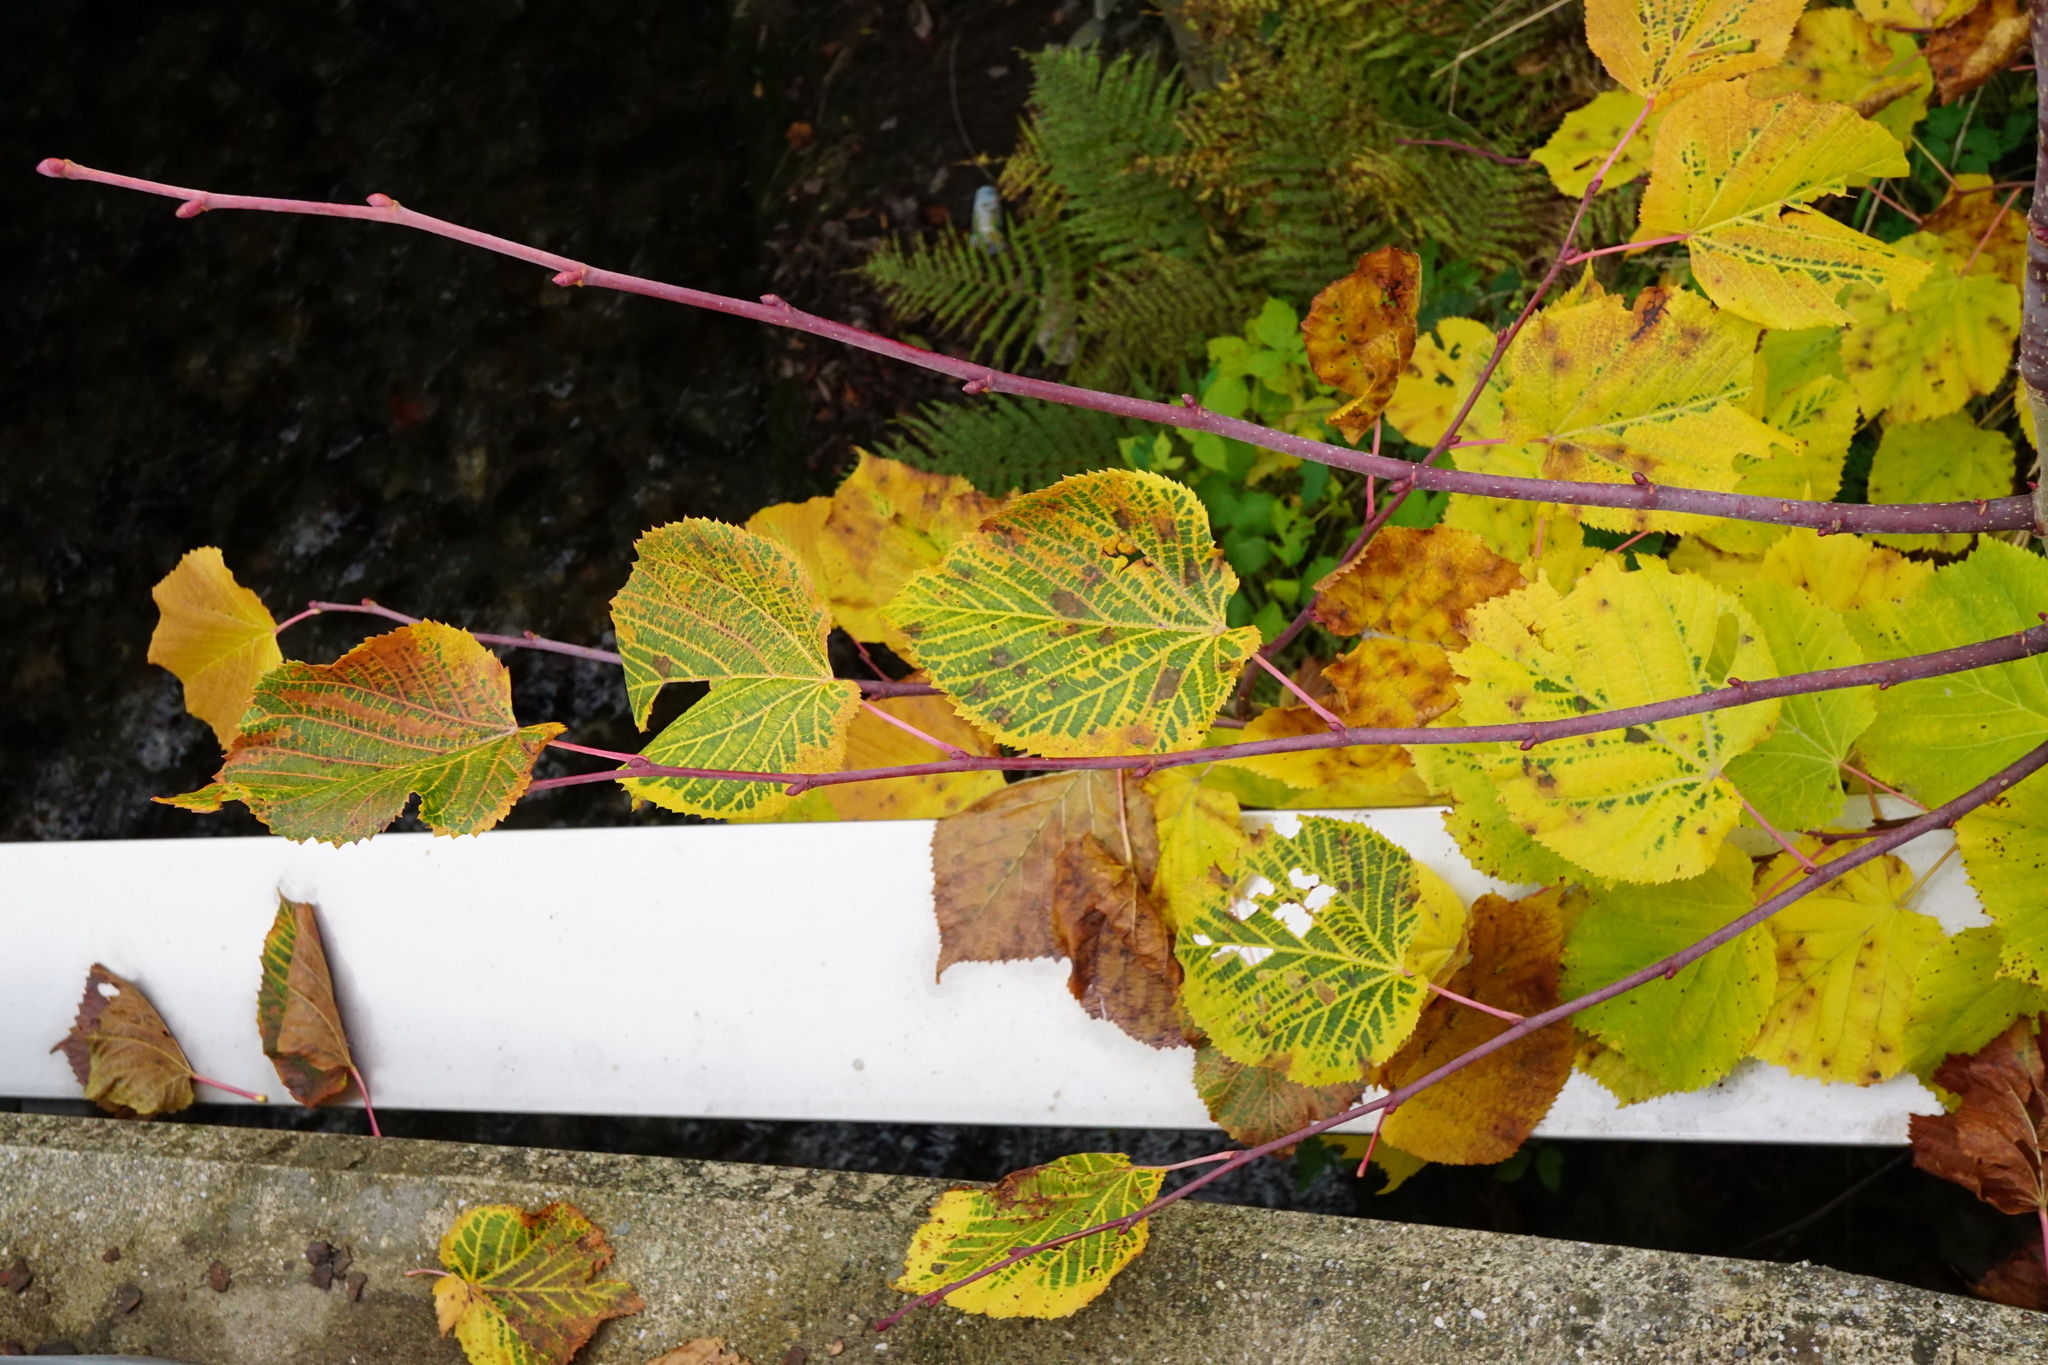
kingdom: Plantae
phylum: Tracheophyta
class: Magnoliopsida
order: Malvales
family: Malvaceae
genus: Tilia
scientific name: Tilia platyphyllos
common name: Large-leaved lime
